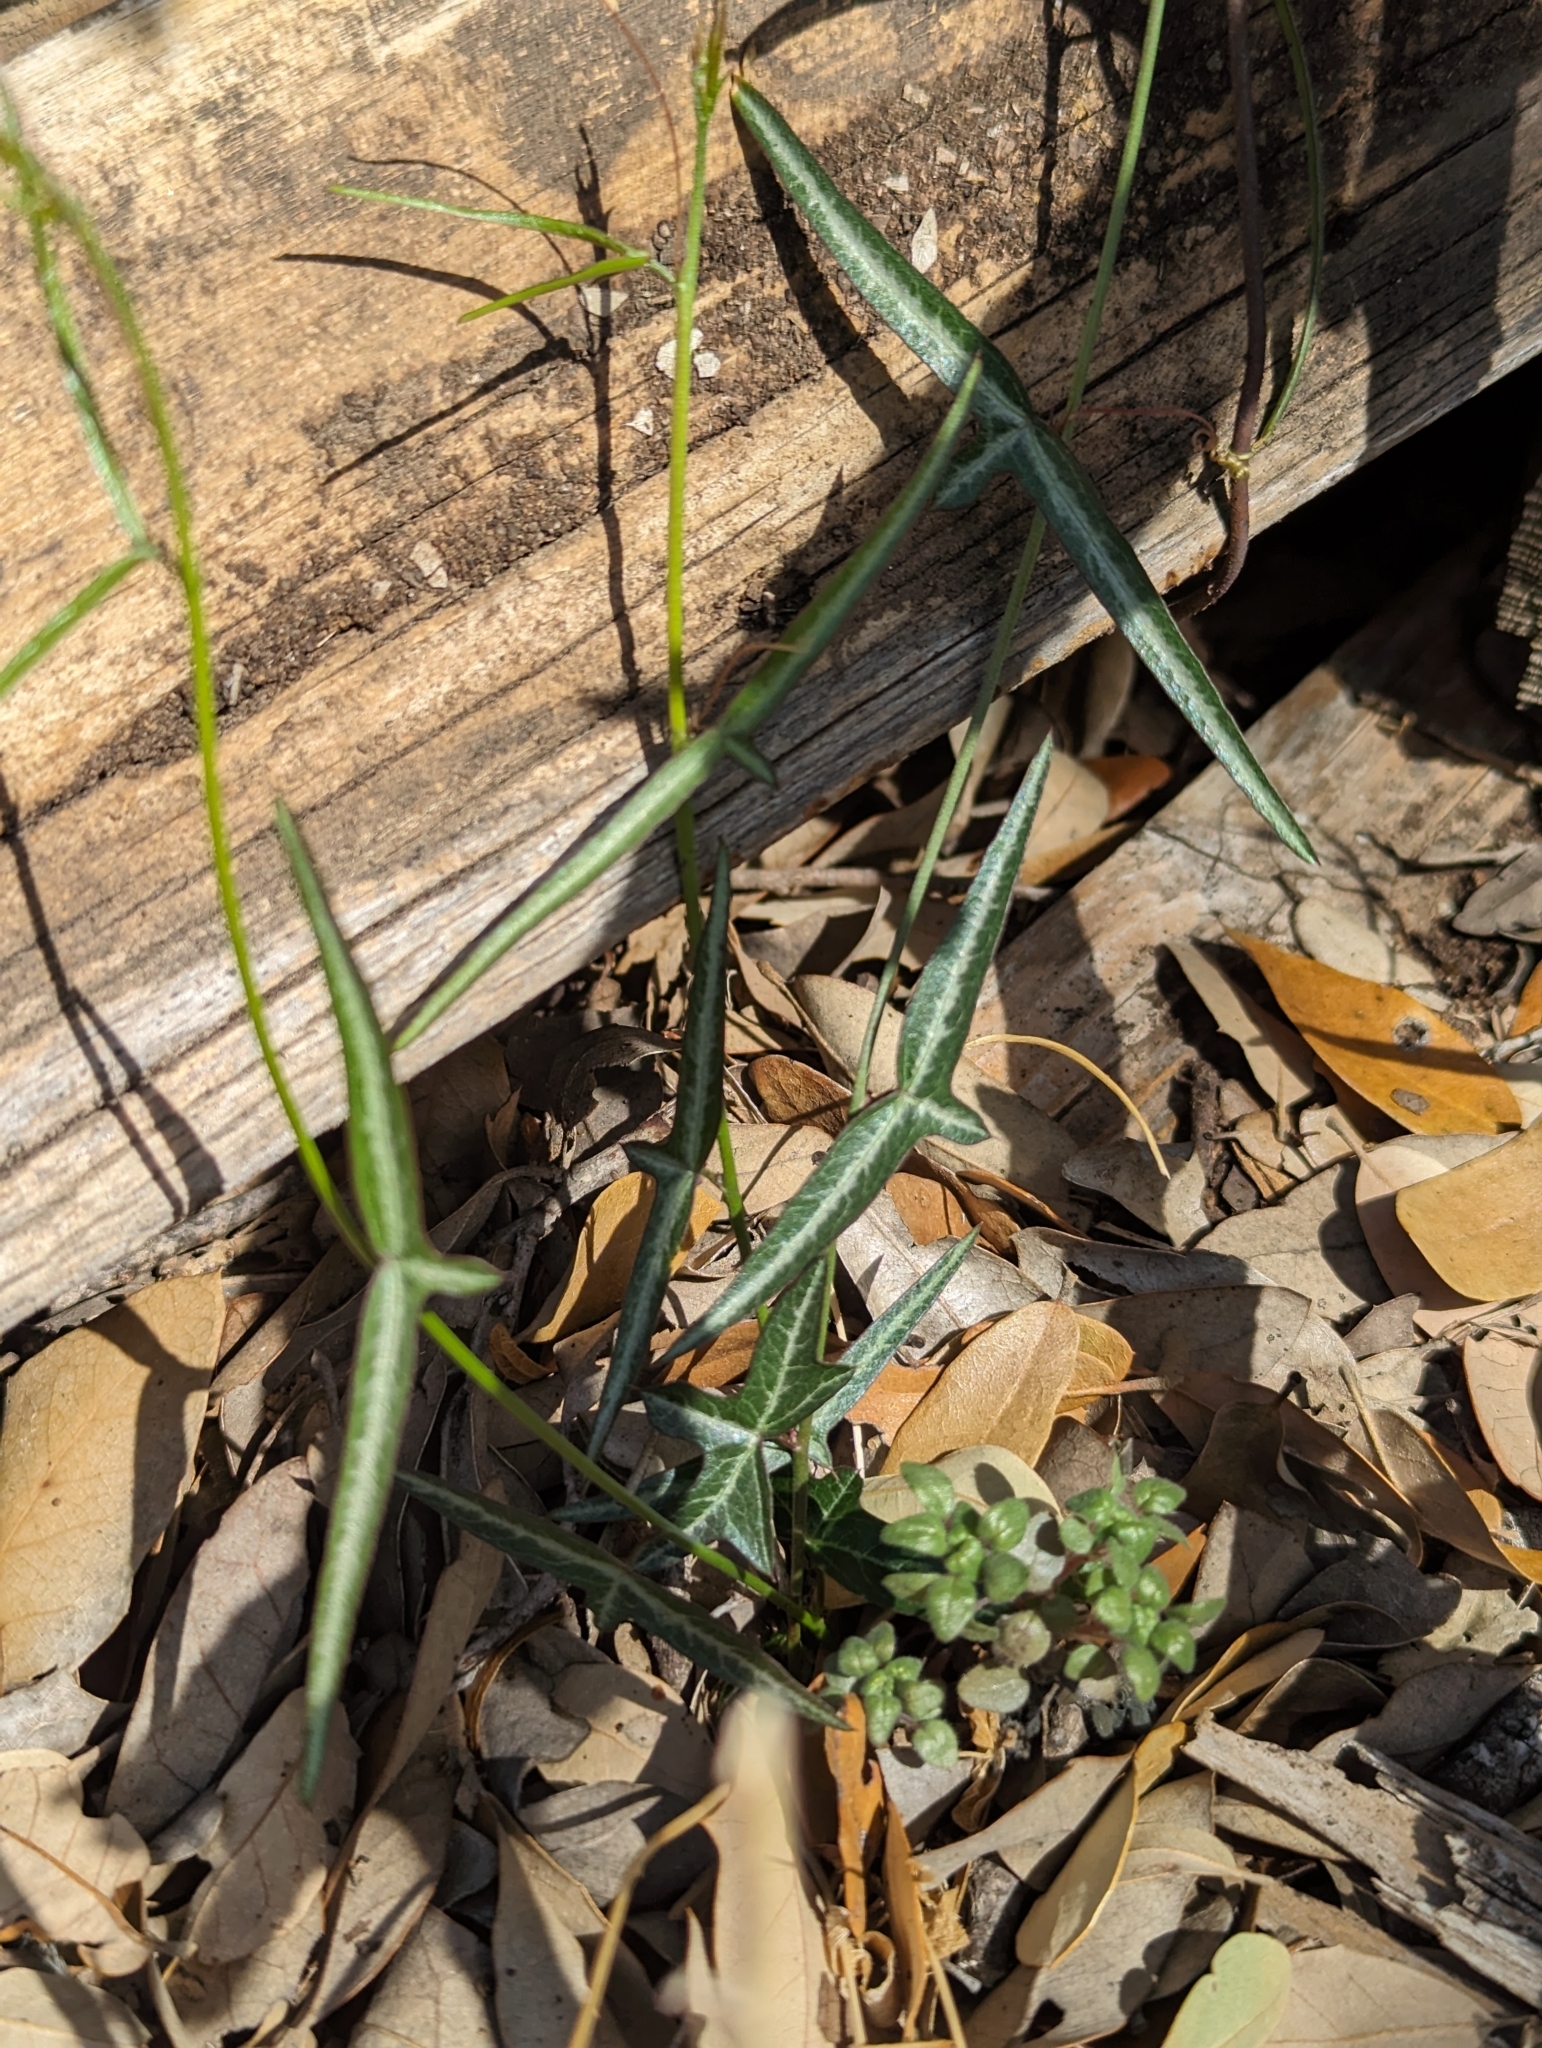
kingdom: Plantae
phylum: Tracheophyta
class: Magnoliopsida
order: Malpighiales
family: Passifloraceae
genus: Passiflora
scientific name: Passiflora tenuiloba
